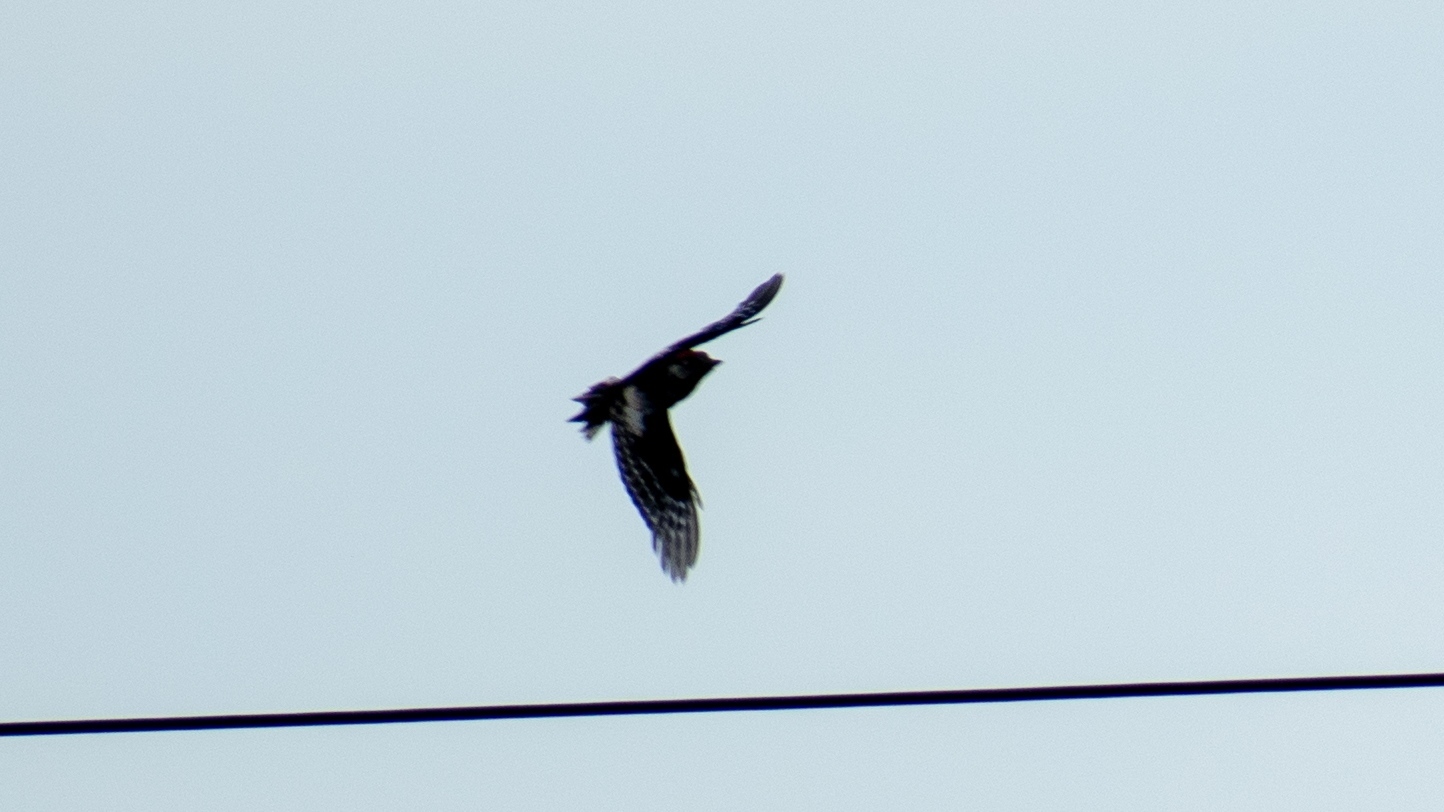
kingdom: Animalia
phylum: Chordata
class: Aves
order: Piciformes
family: Picidae
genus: Dendrocopos
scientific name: Dendrocopos major
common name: Great spotted woodpecker
